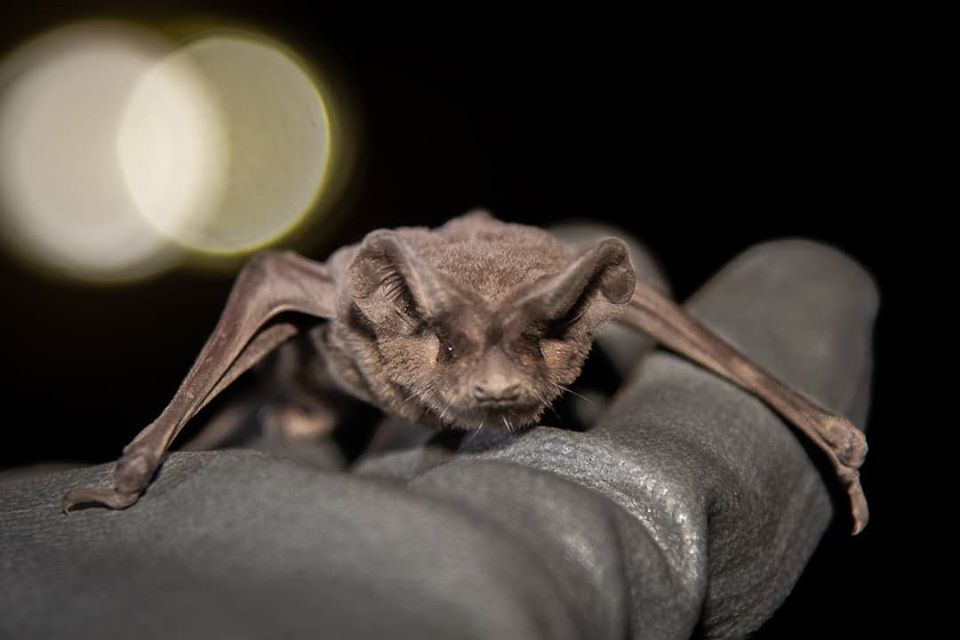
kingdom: Animalia
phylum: Chordata
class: Mammalia
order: Chiroptera
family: Molossidae
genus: Tadarida
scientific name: Tadarida brasiliensis
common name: Mexican free-tailed bat
